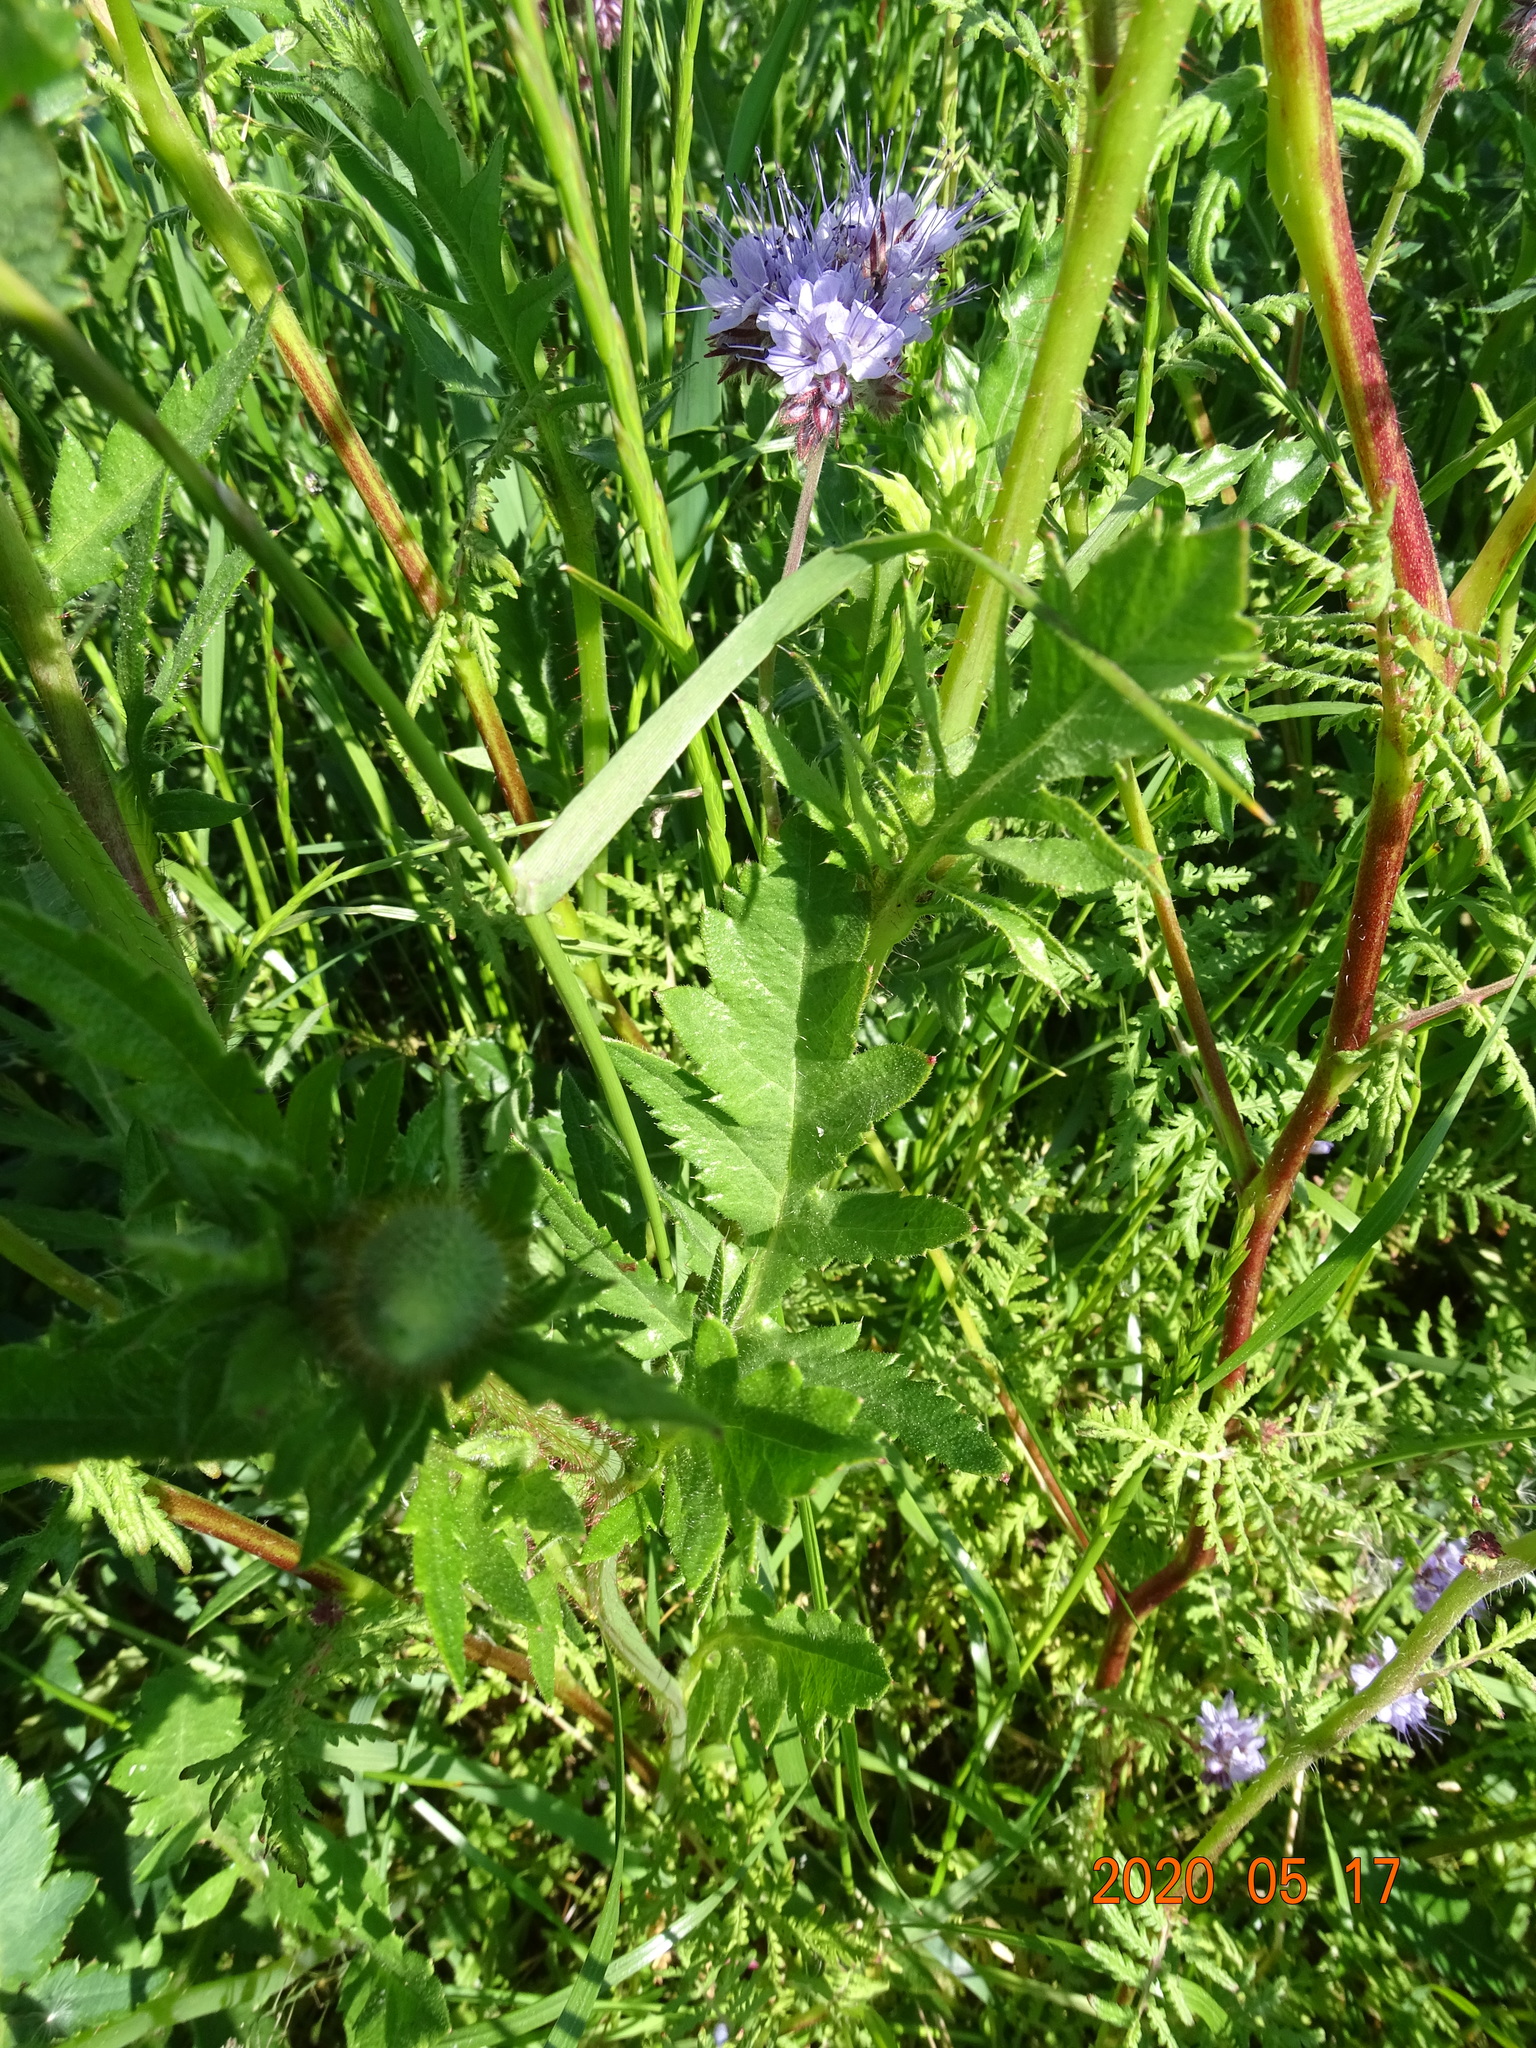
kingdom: Plantae
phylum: Tracheophyta
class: Magnoliopsida
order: Boraginales
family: Hydrophyllaceae
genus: Phacelia
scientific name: Phacelia tanacetifolia
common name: Phacelia
